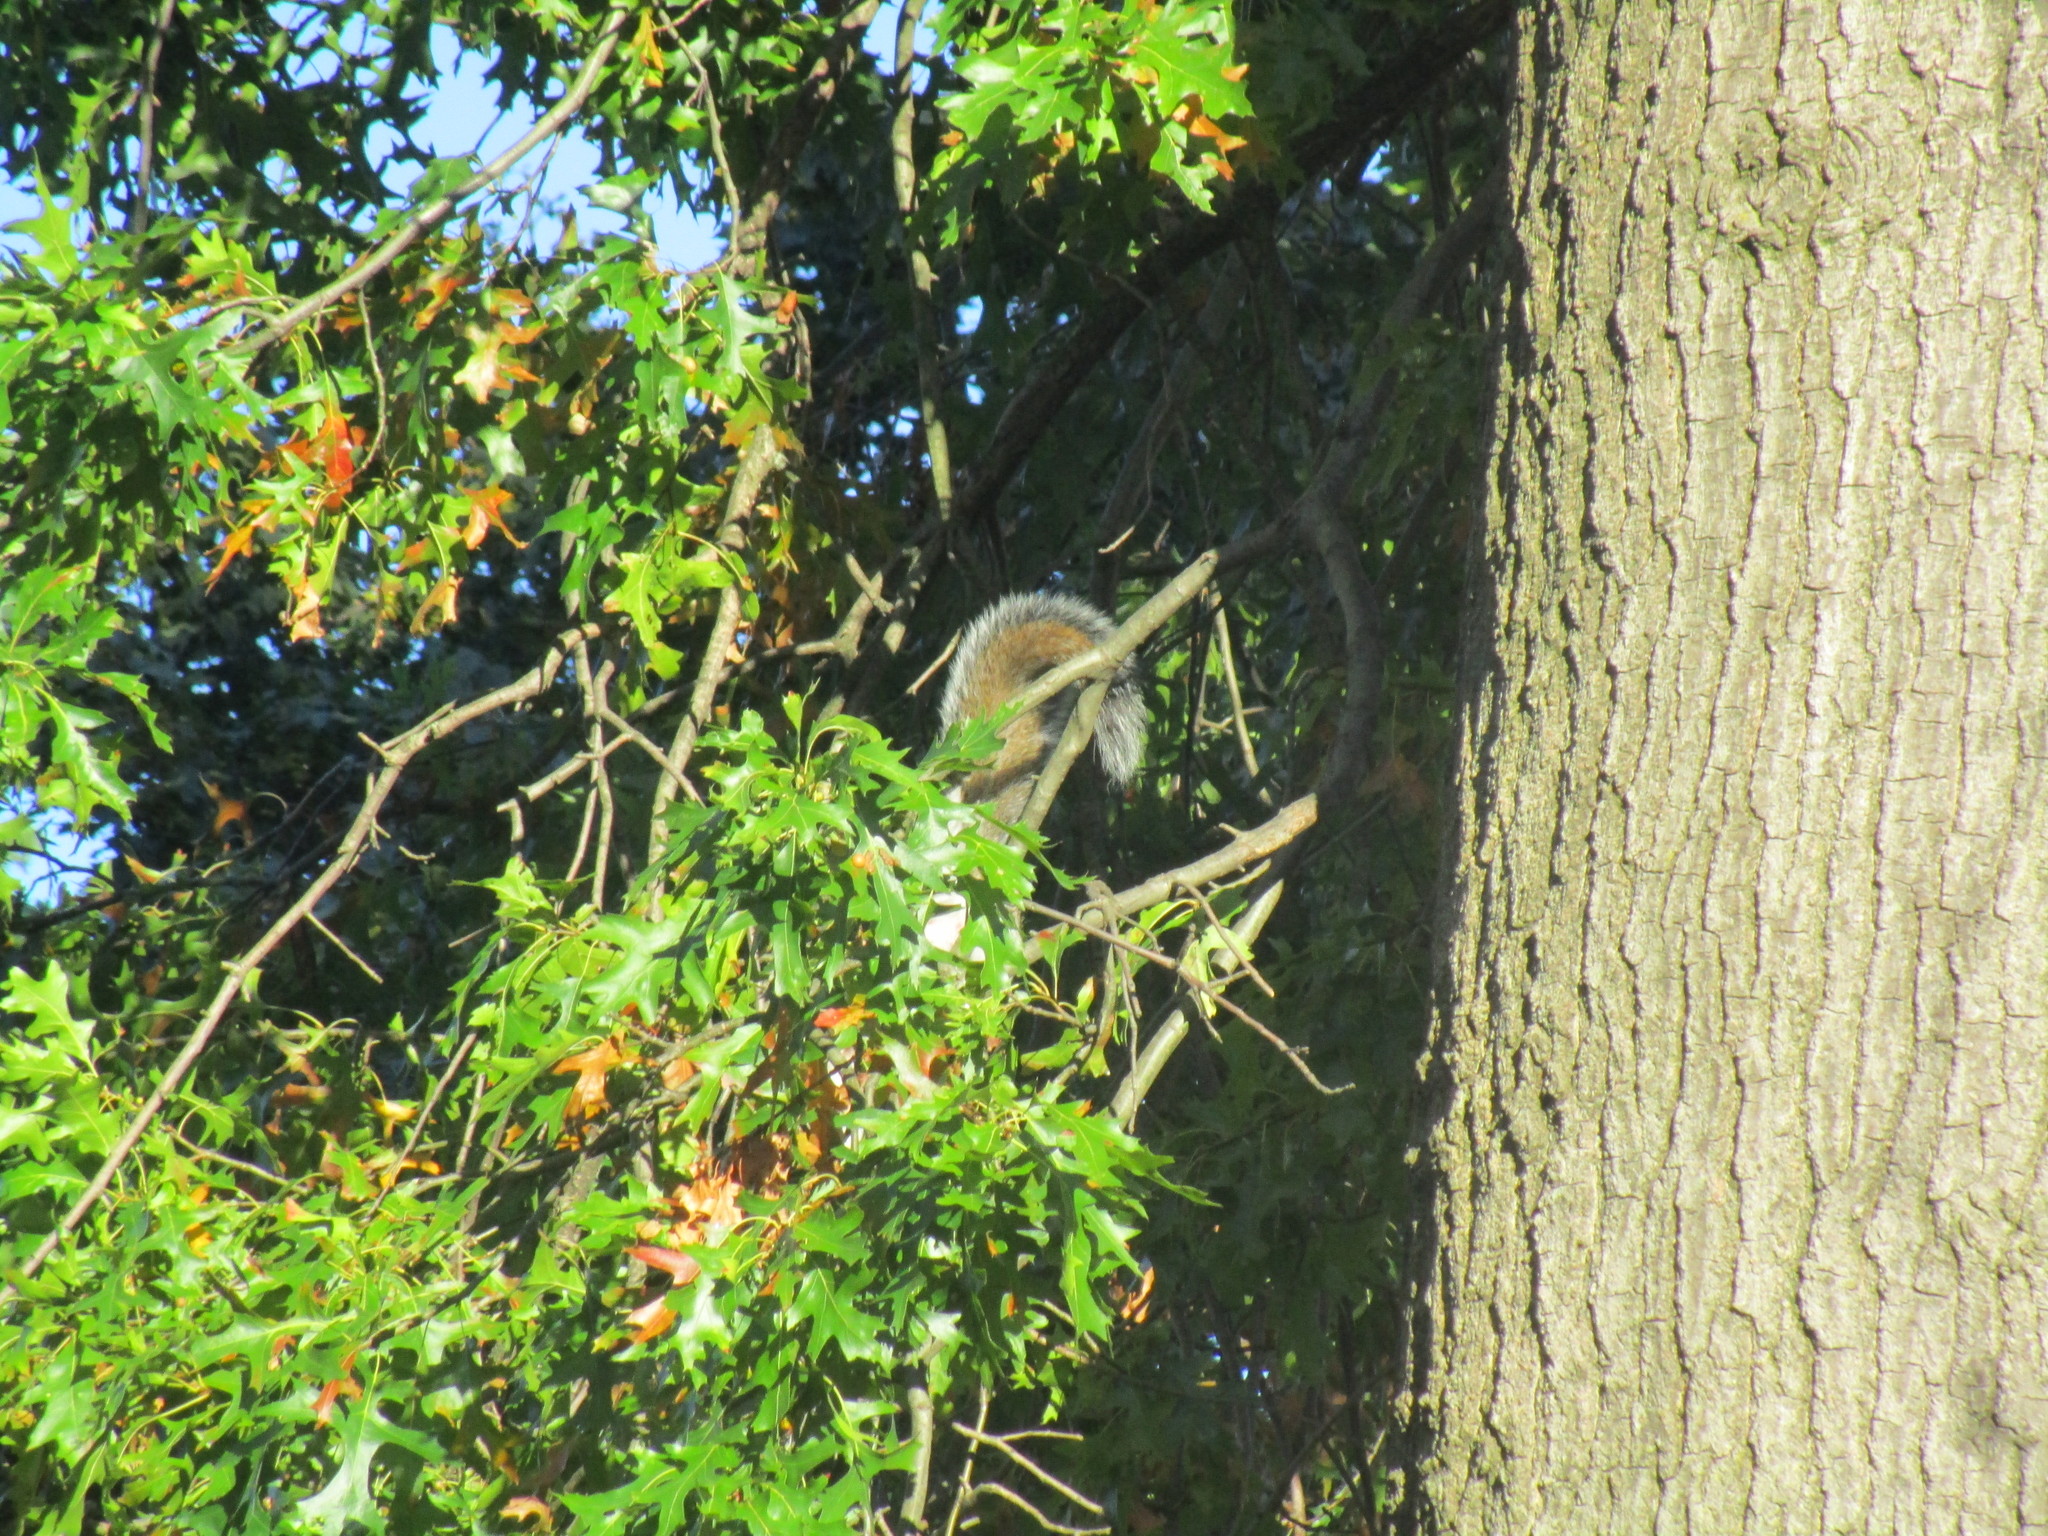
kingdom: Animalia
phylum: Chordata
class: Mammalia
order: Rodentia
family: Sciuridae
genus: Sciurus
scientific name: Sciurus carolinensis
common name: Eastern gray squirrel
